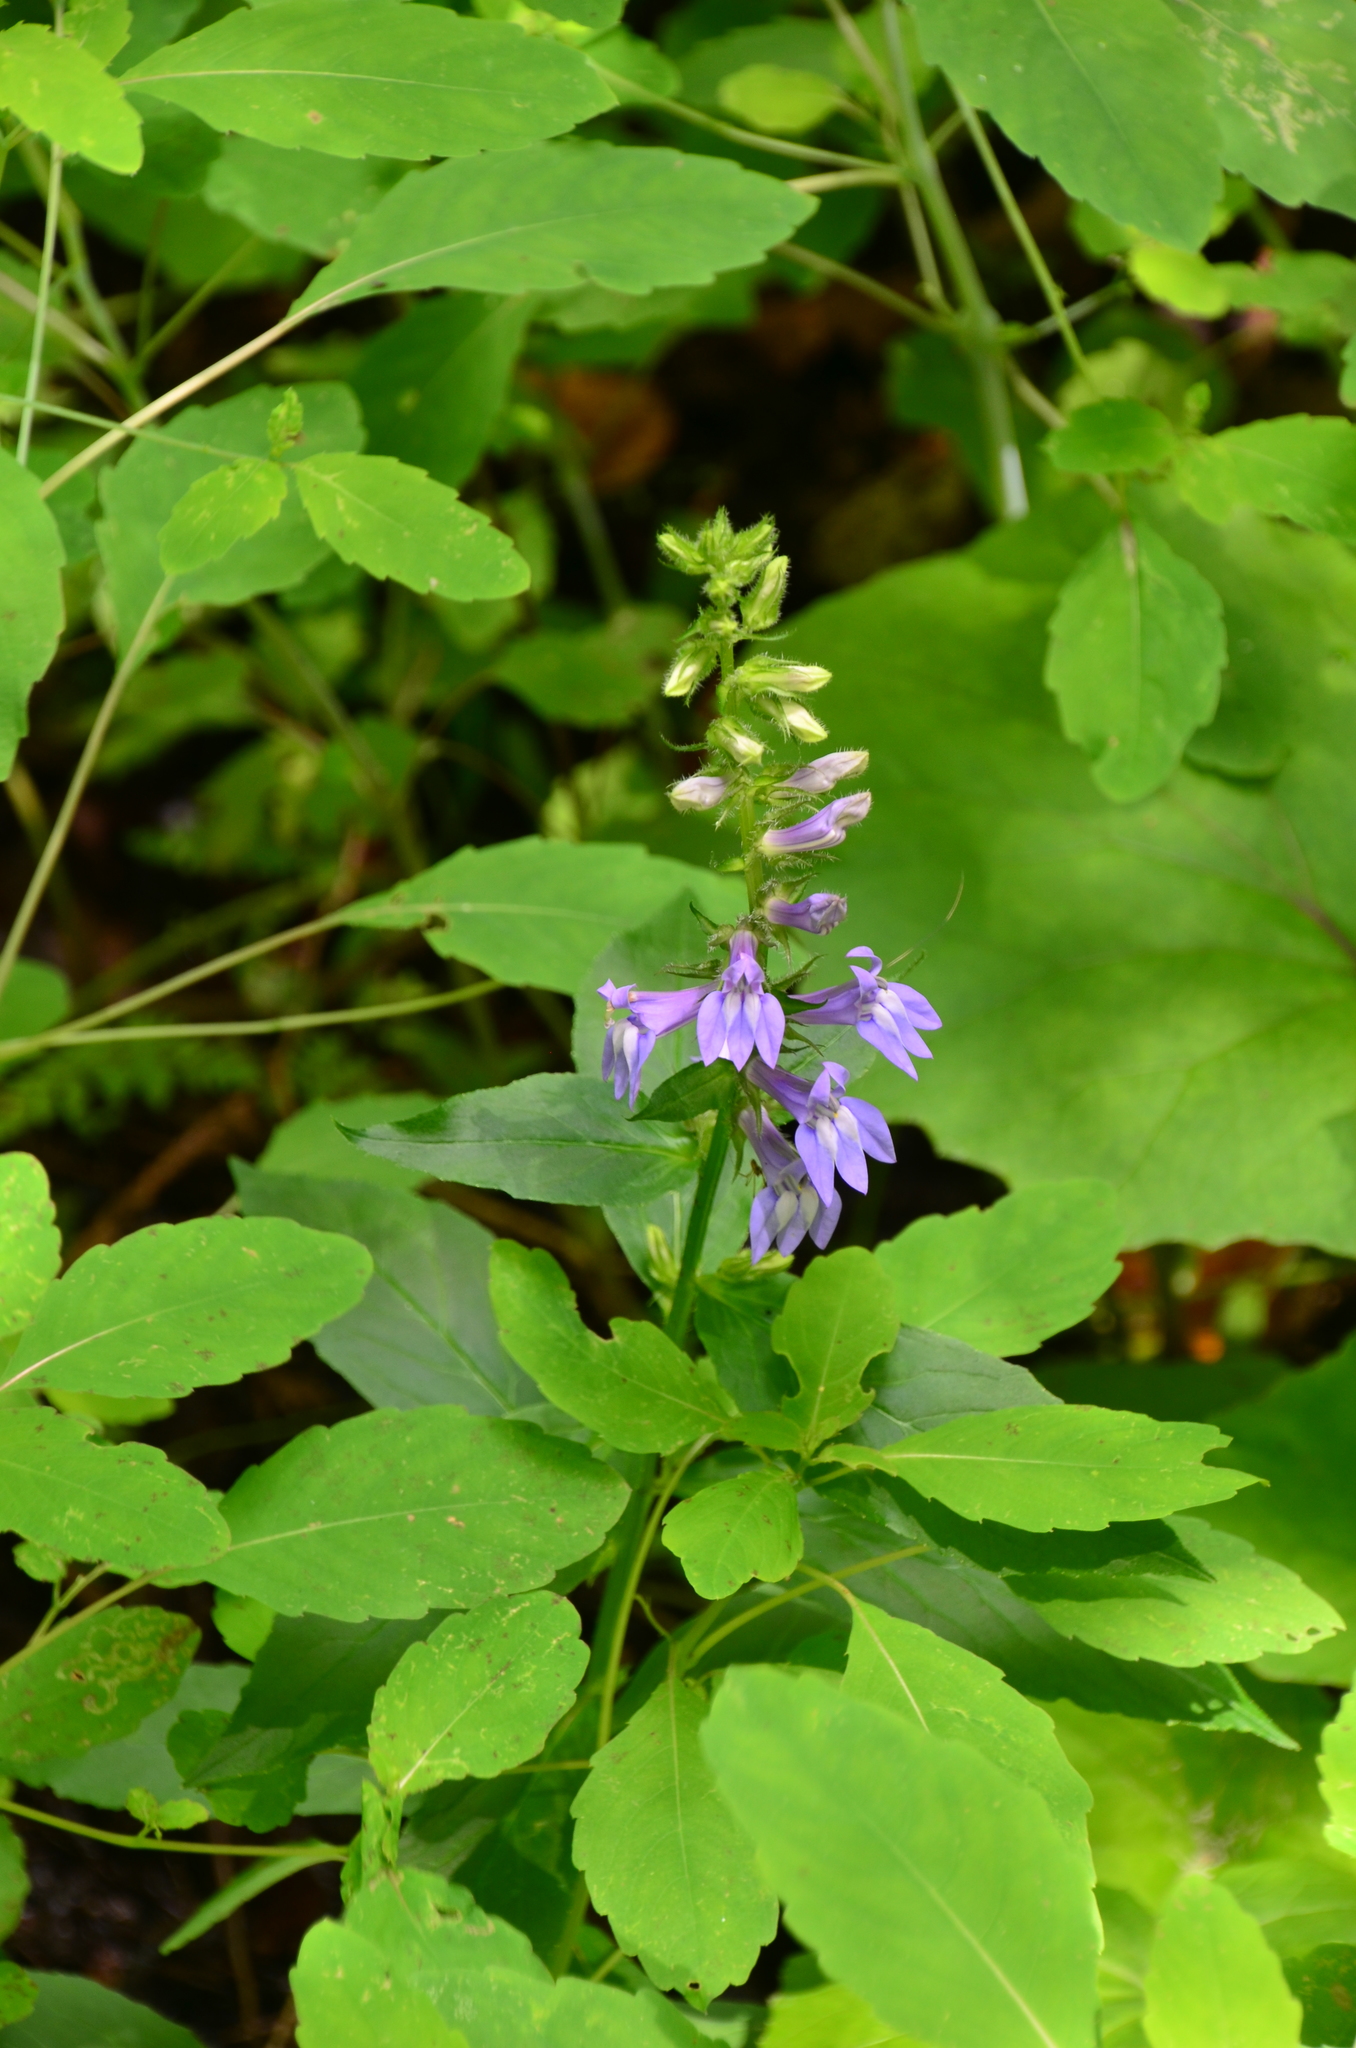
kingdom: Plantae
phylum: Tracheophyta
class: Magnoliopsida
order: Asterales
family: Campanulaceae
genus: Lobelia
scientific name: Lobelia siphilitica
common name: Great lobelia
